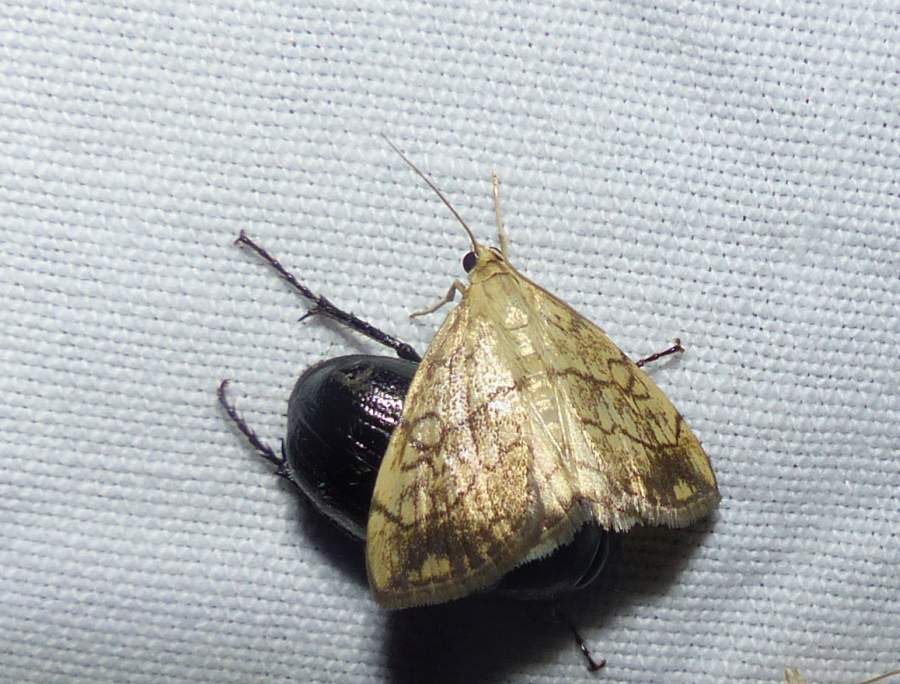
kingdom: Animalia
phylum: Arthropoda
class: Insecta
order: Lepidoptera
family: Crambidae
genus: Evergestis
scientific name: Evergestis pallidata
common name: Chequered pearl
